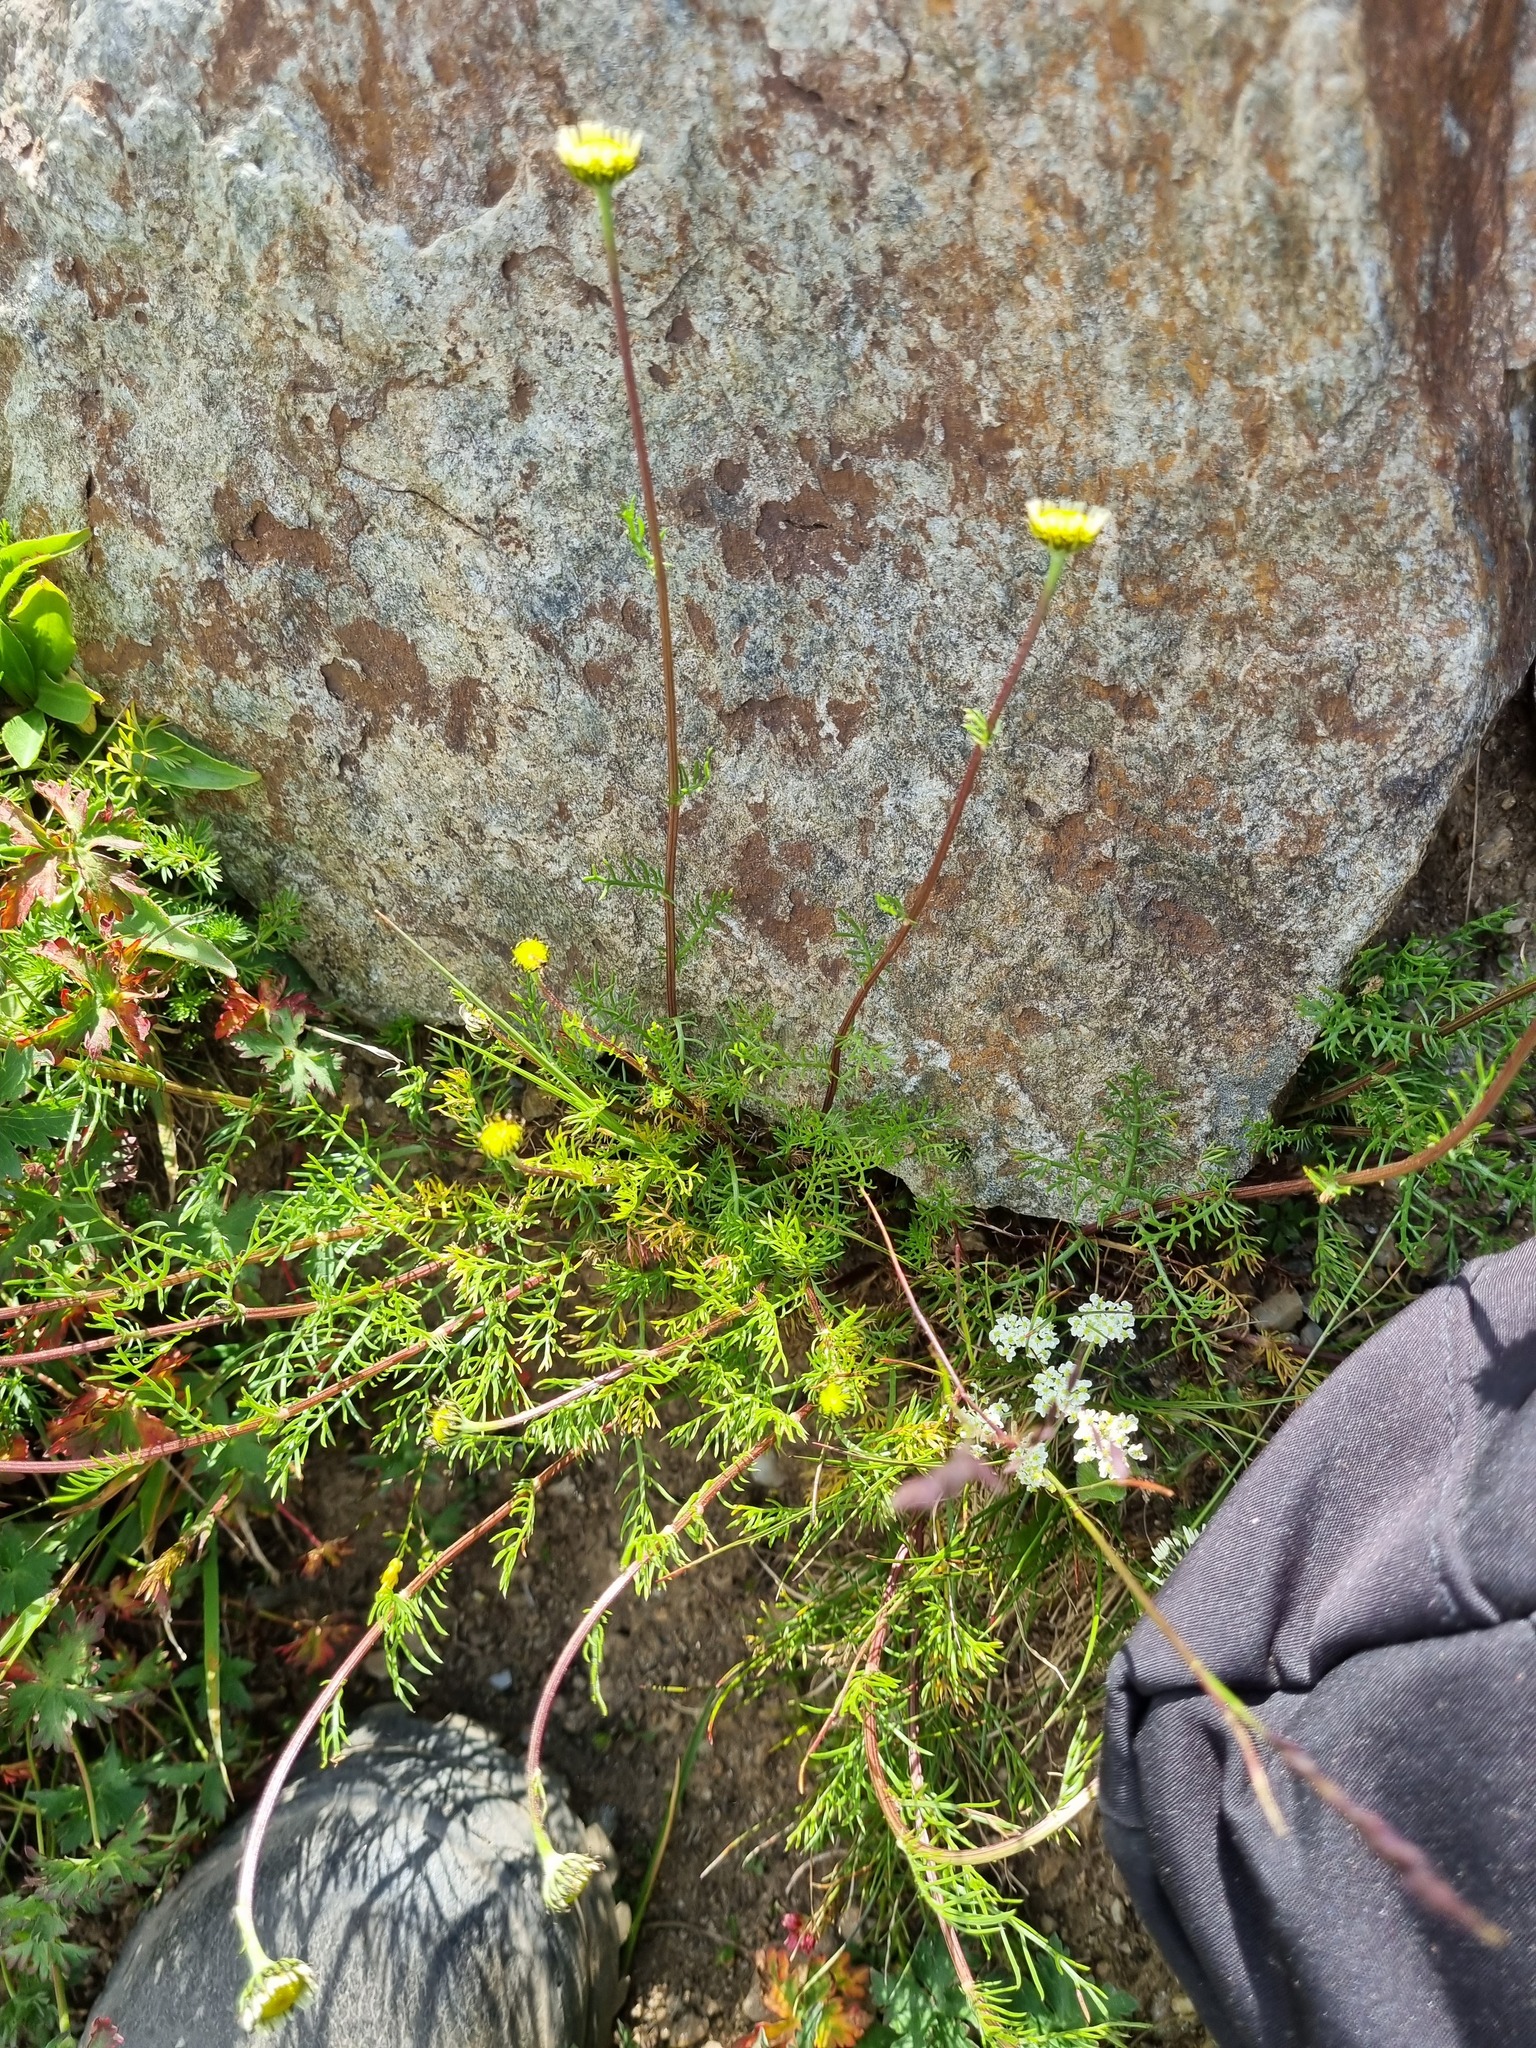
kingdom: Plantae
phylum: Tracheophyta
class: Magnoliopsida
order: Asterales
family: Asteraceae
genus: Tripleurospermum
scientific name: Tripleurospermum caucasicum
